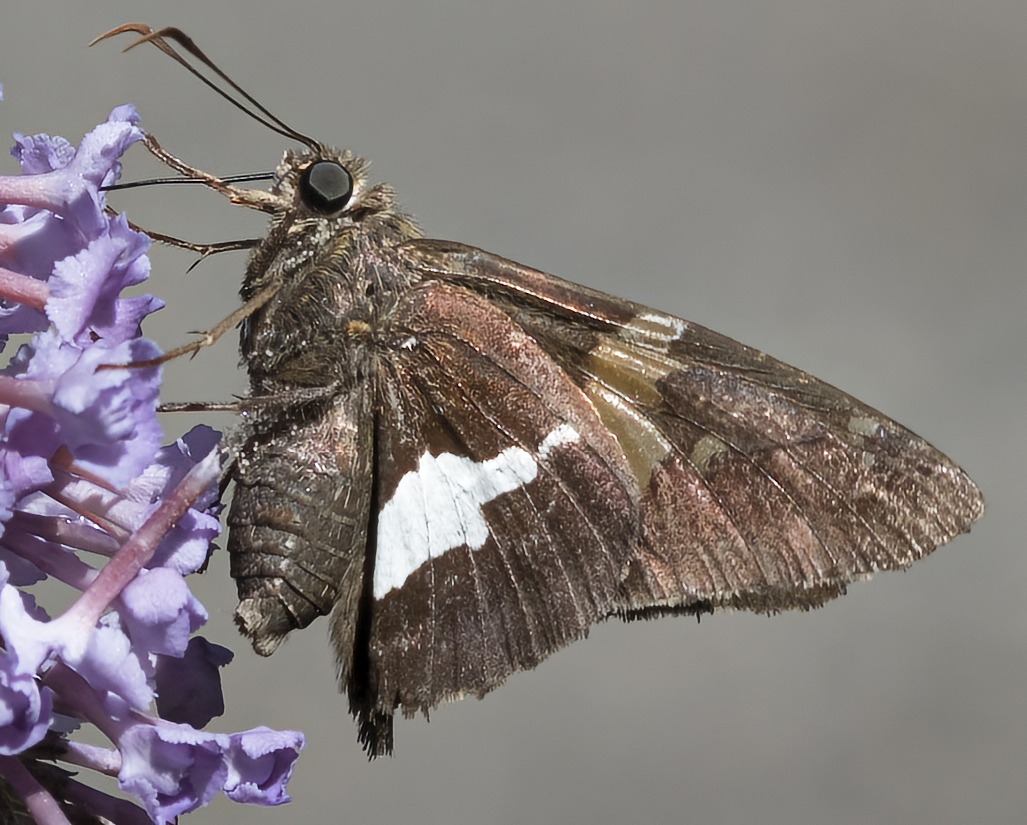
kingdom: Animalia
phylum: Arthropoda
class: Insecta
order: Lepidoptera
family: Hesperiidae
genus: Epargyreus
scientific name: Epargyreus clarus
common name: Silver-spotted skipper
